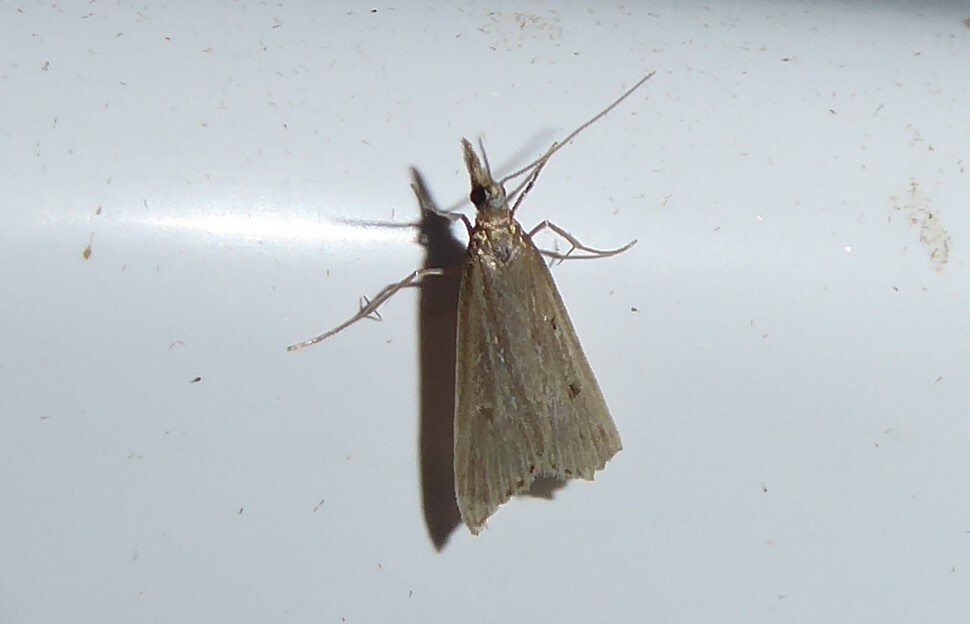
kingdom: Animalia
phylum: Arthropoda
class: Insecta
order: Lepidoptera
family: Crambidae
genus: Antiscopa
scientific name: Antiscopa elaphra
